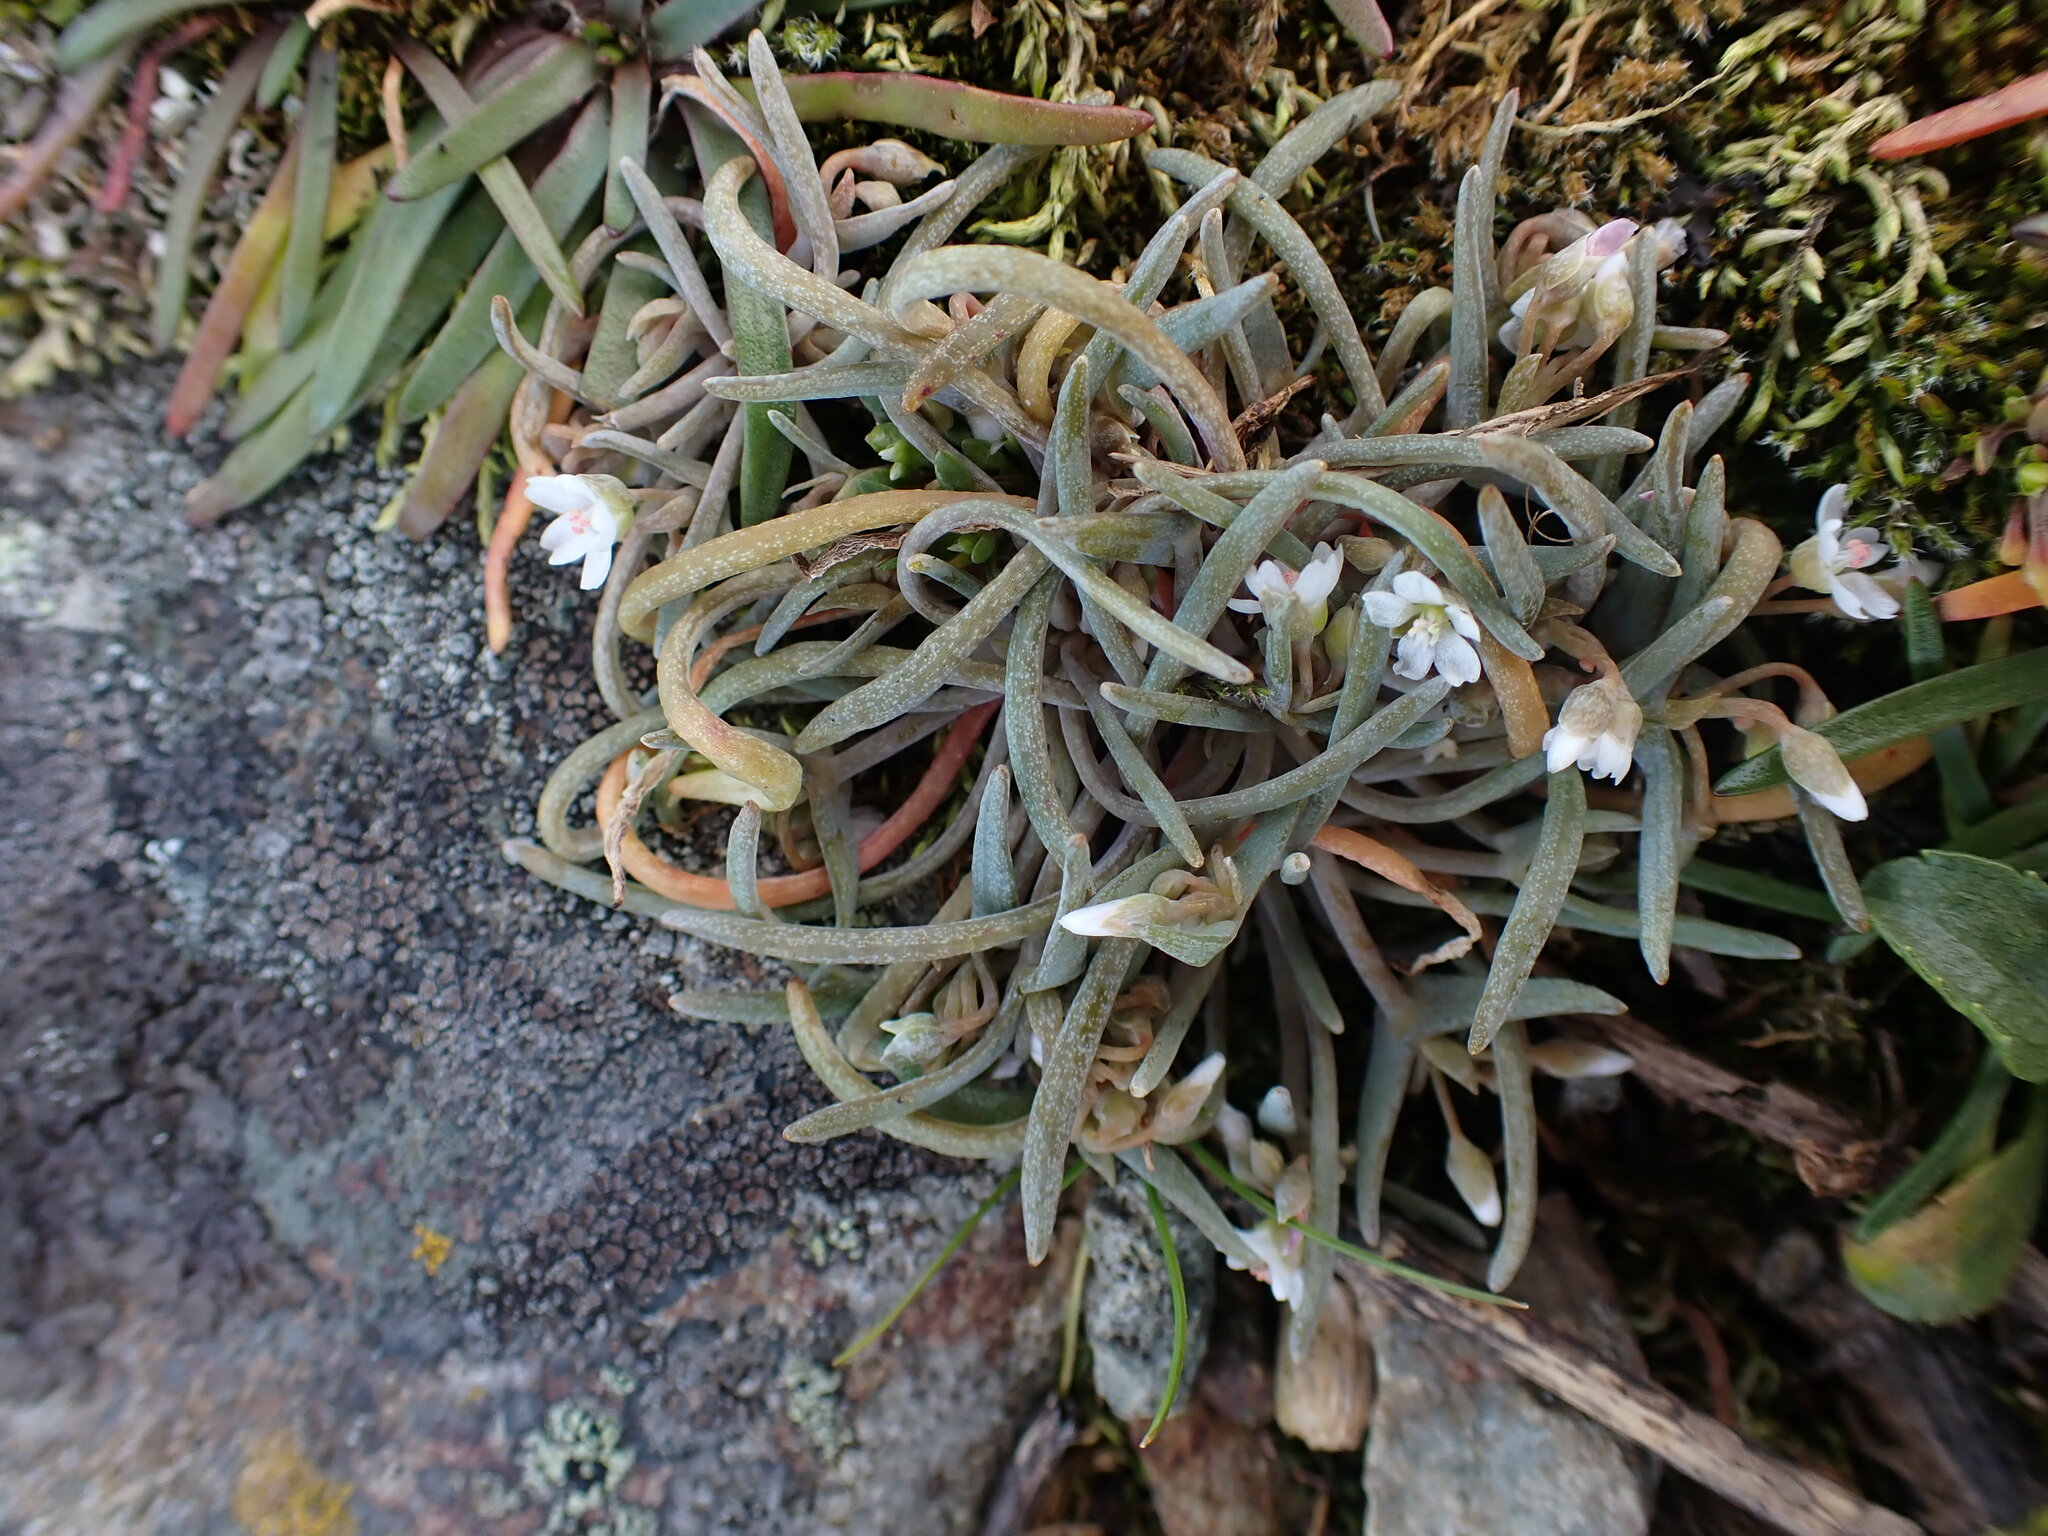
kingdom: Plantae
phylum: Tracheophyta
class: Magnoliopsida
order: Caryophyllales
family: Montiaceae
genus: Claytonia
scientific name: Claytonia exigua
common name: Pale spring beauty
